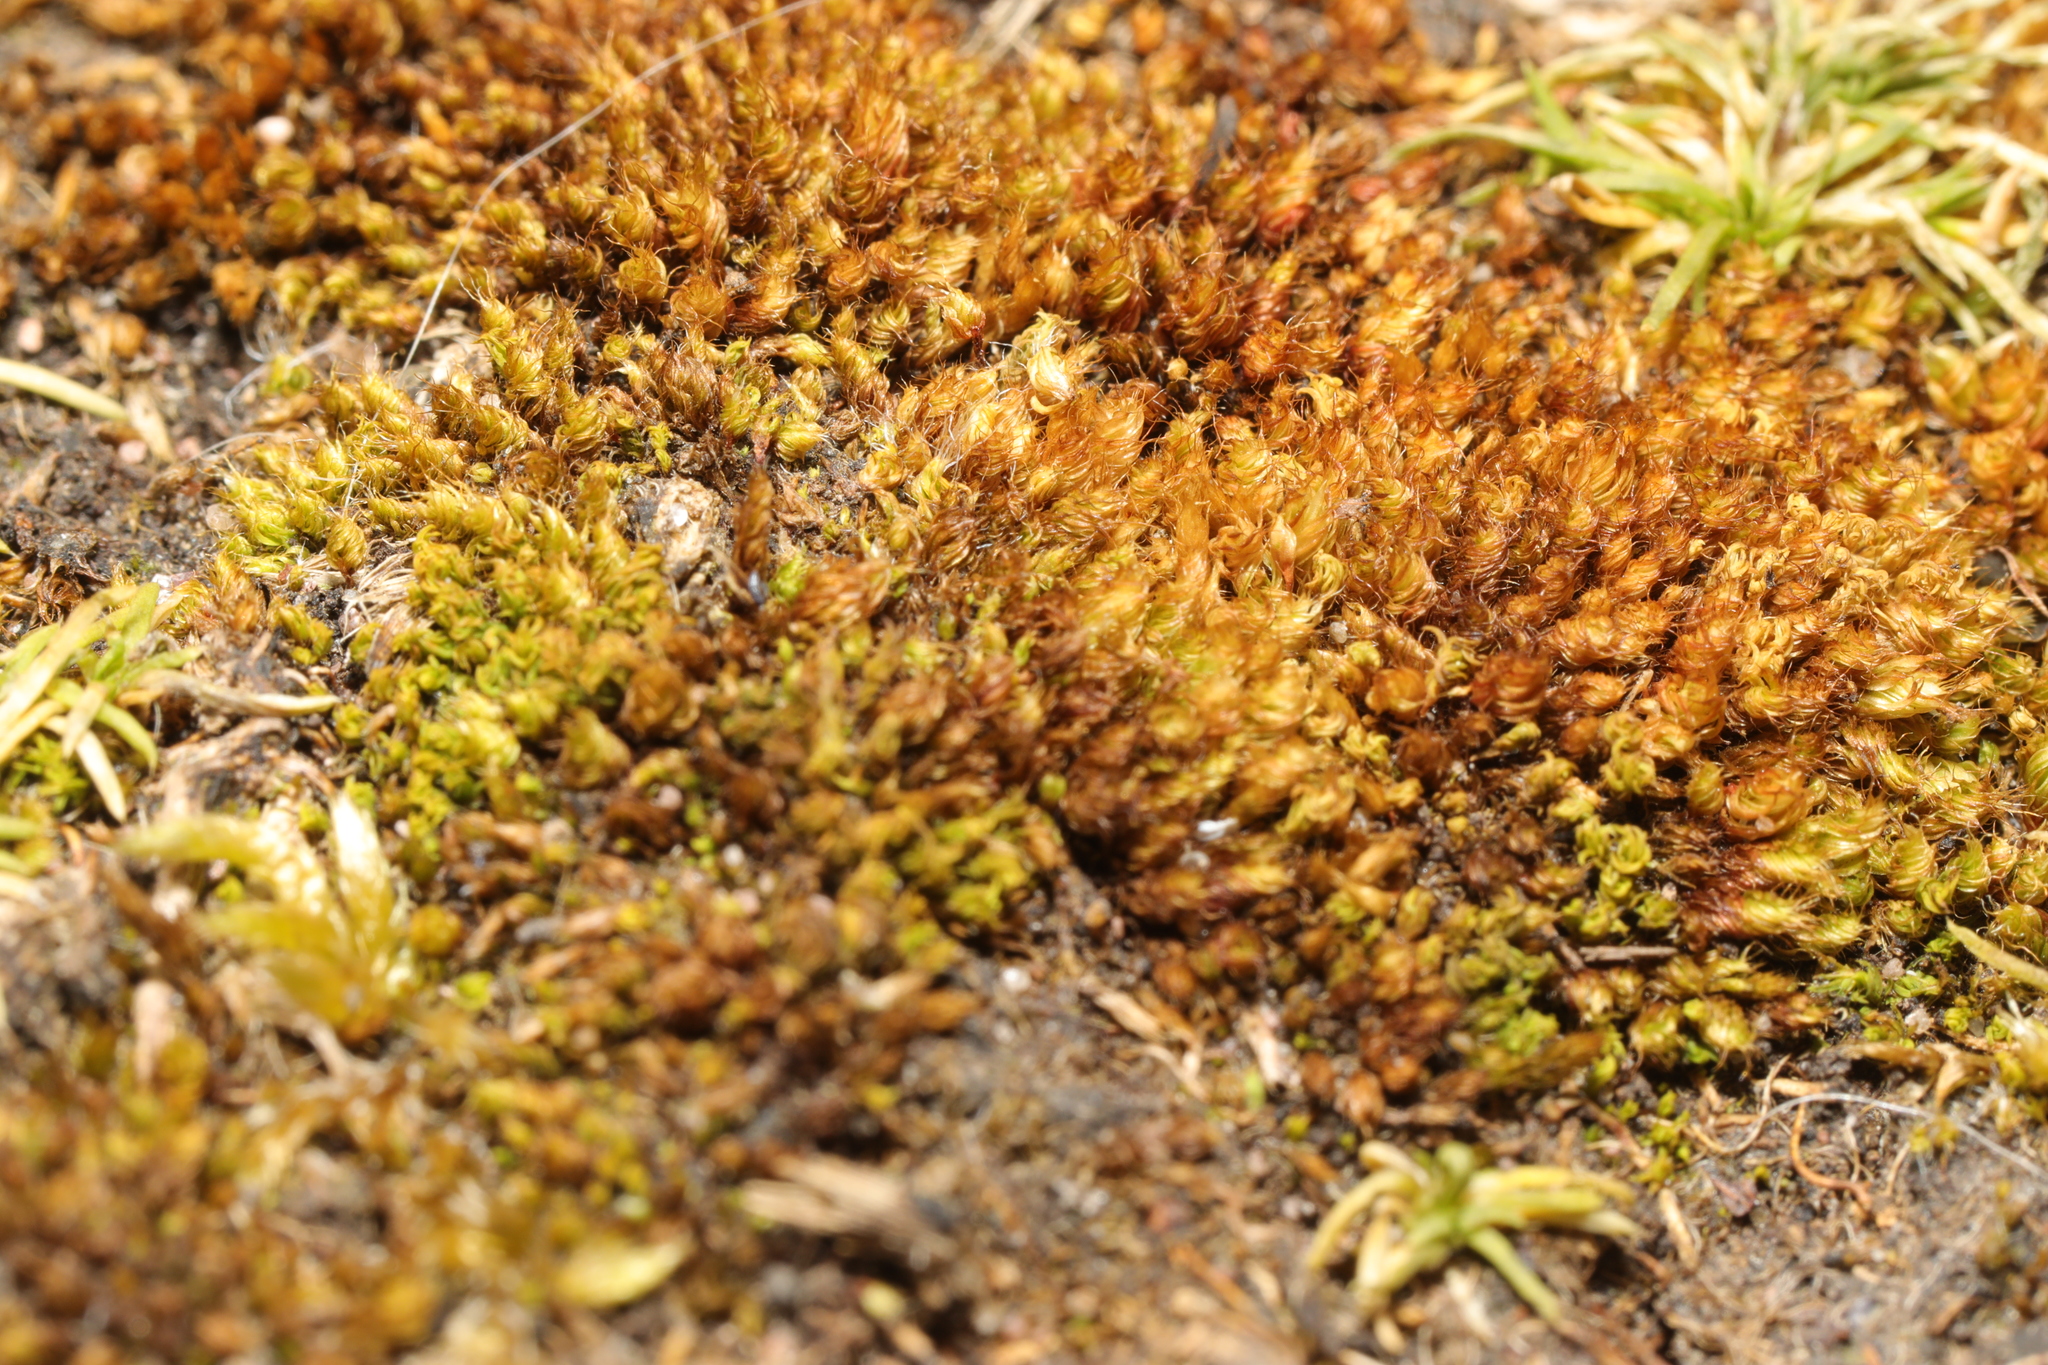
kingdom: Plantae
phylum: Bryophyta
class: Bryopsida
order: Bryales
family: Bryaceae
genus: Rosulabryum
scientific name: Rosulabryum capillare
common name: Capillary thread-moss
